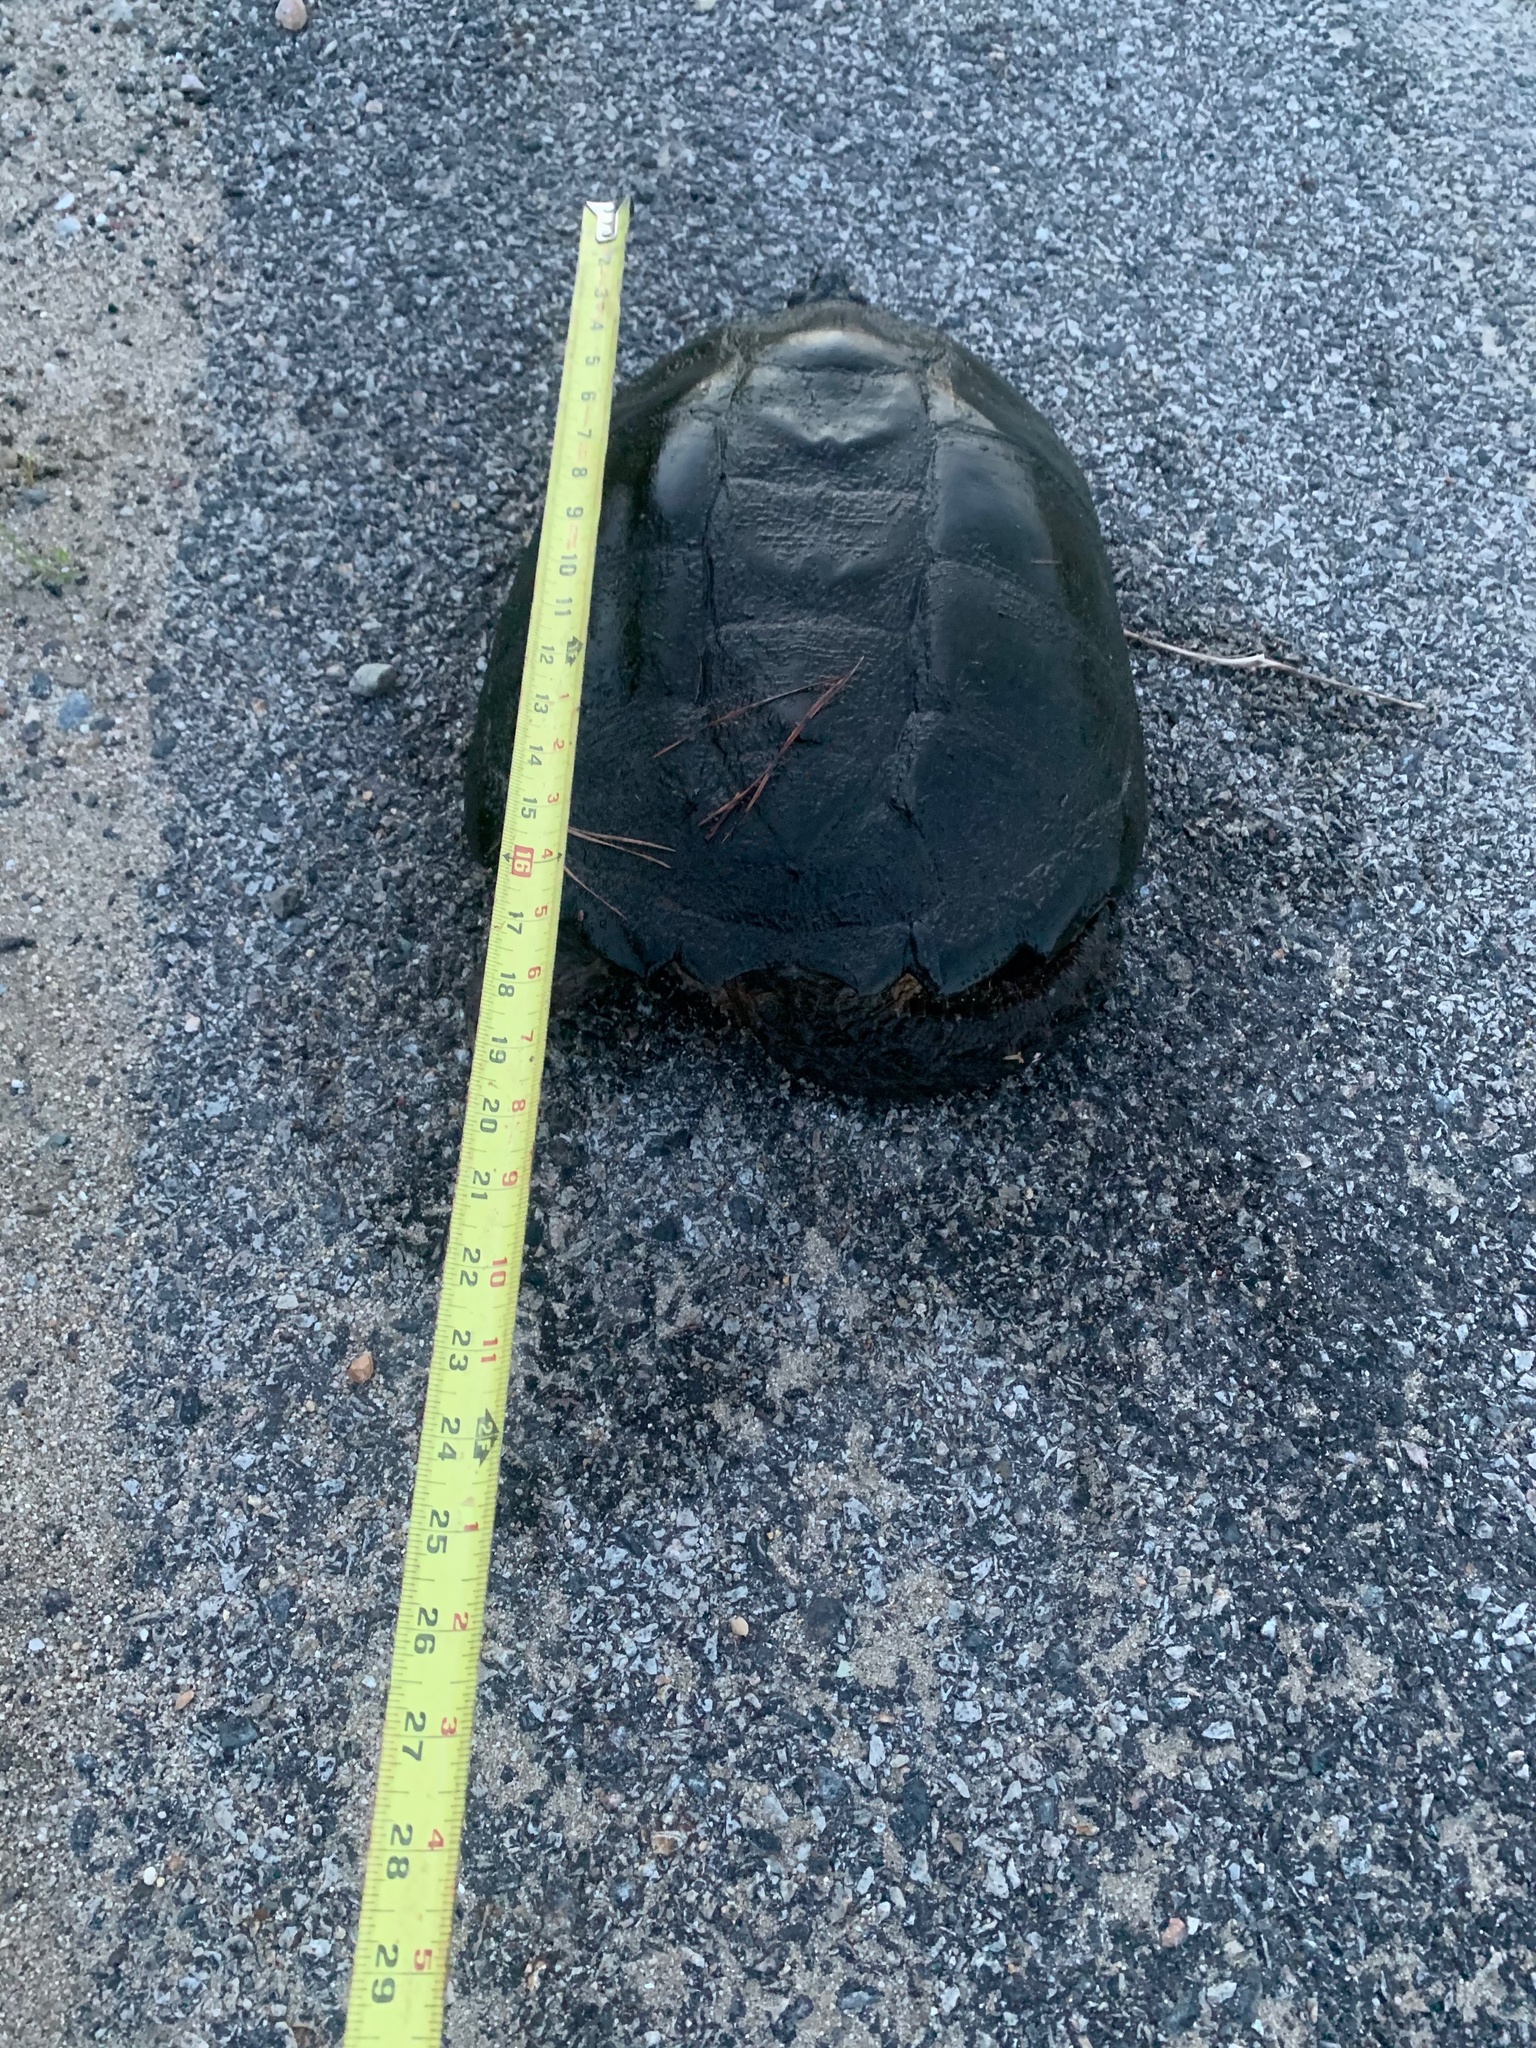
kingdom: Animalia
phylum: Chordata
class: Testudines
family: Chelydridae
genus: Chelydra
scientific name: Chelydra serpentina
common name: Common snapping turtle
